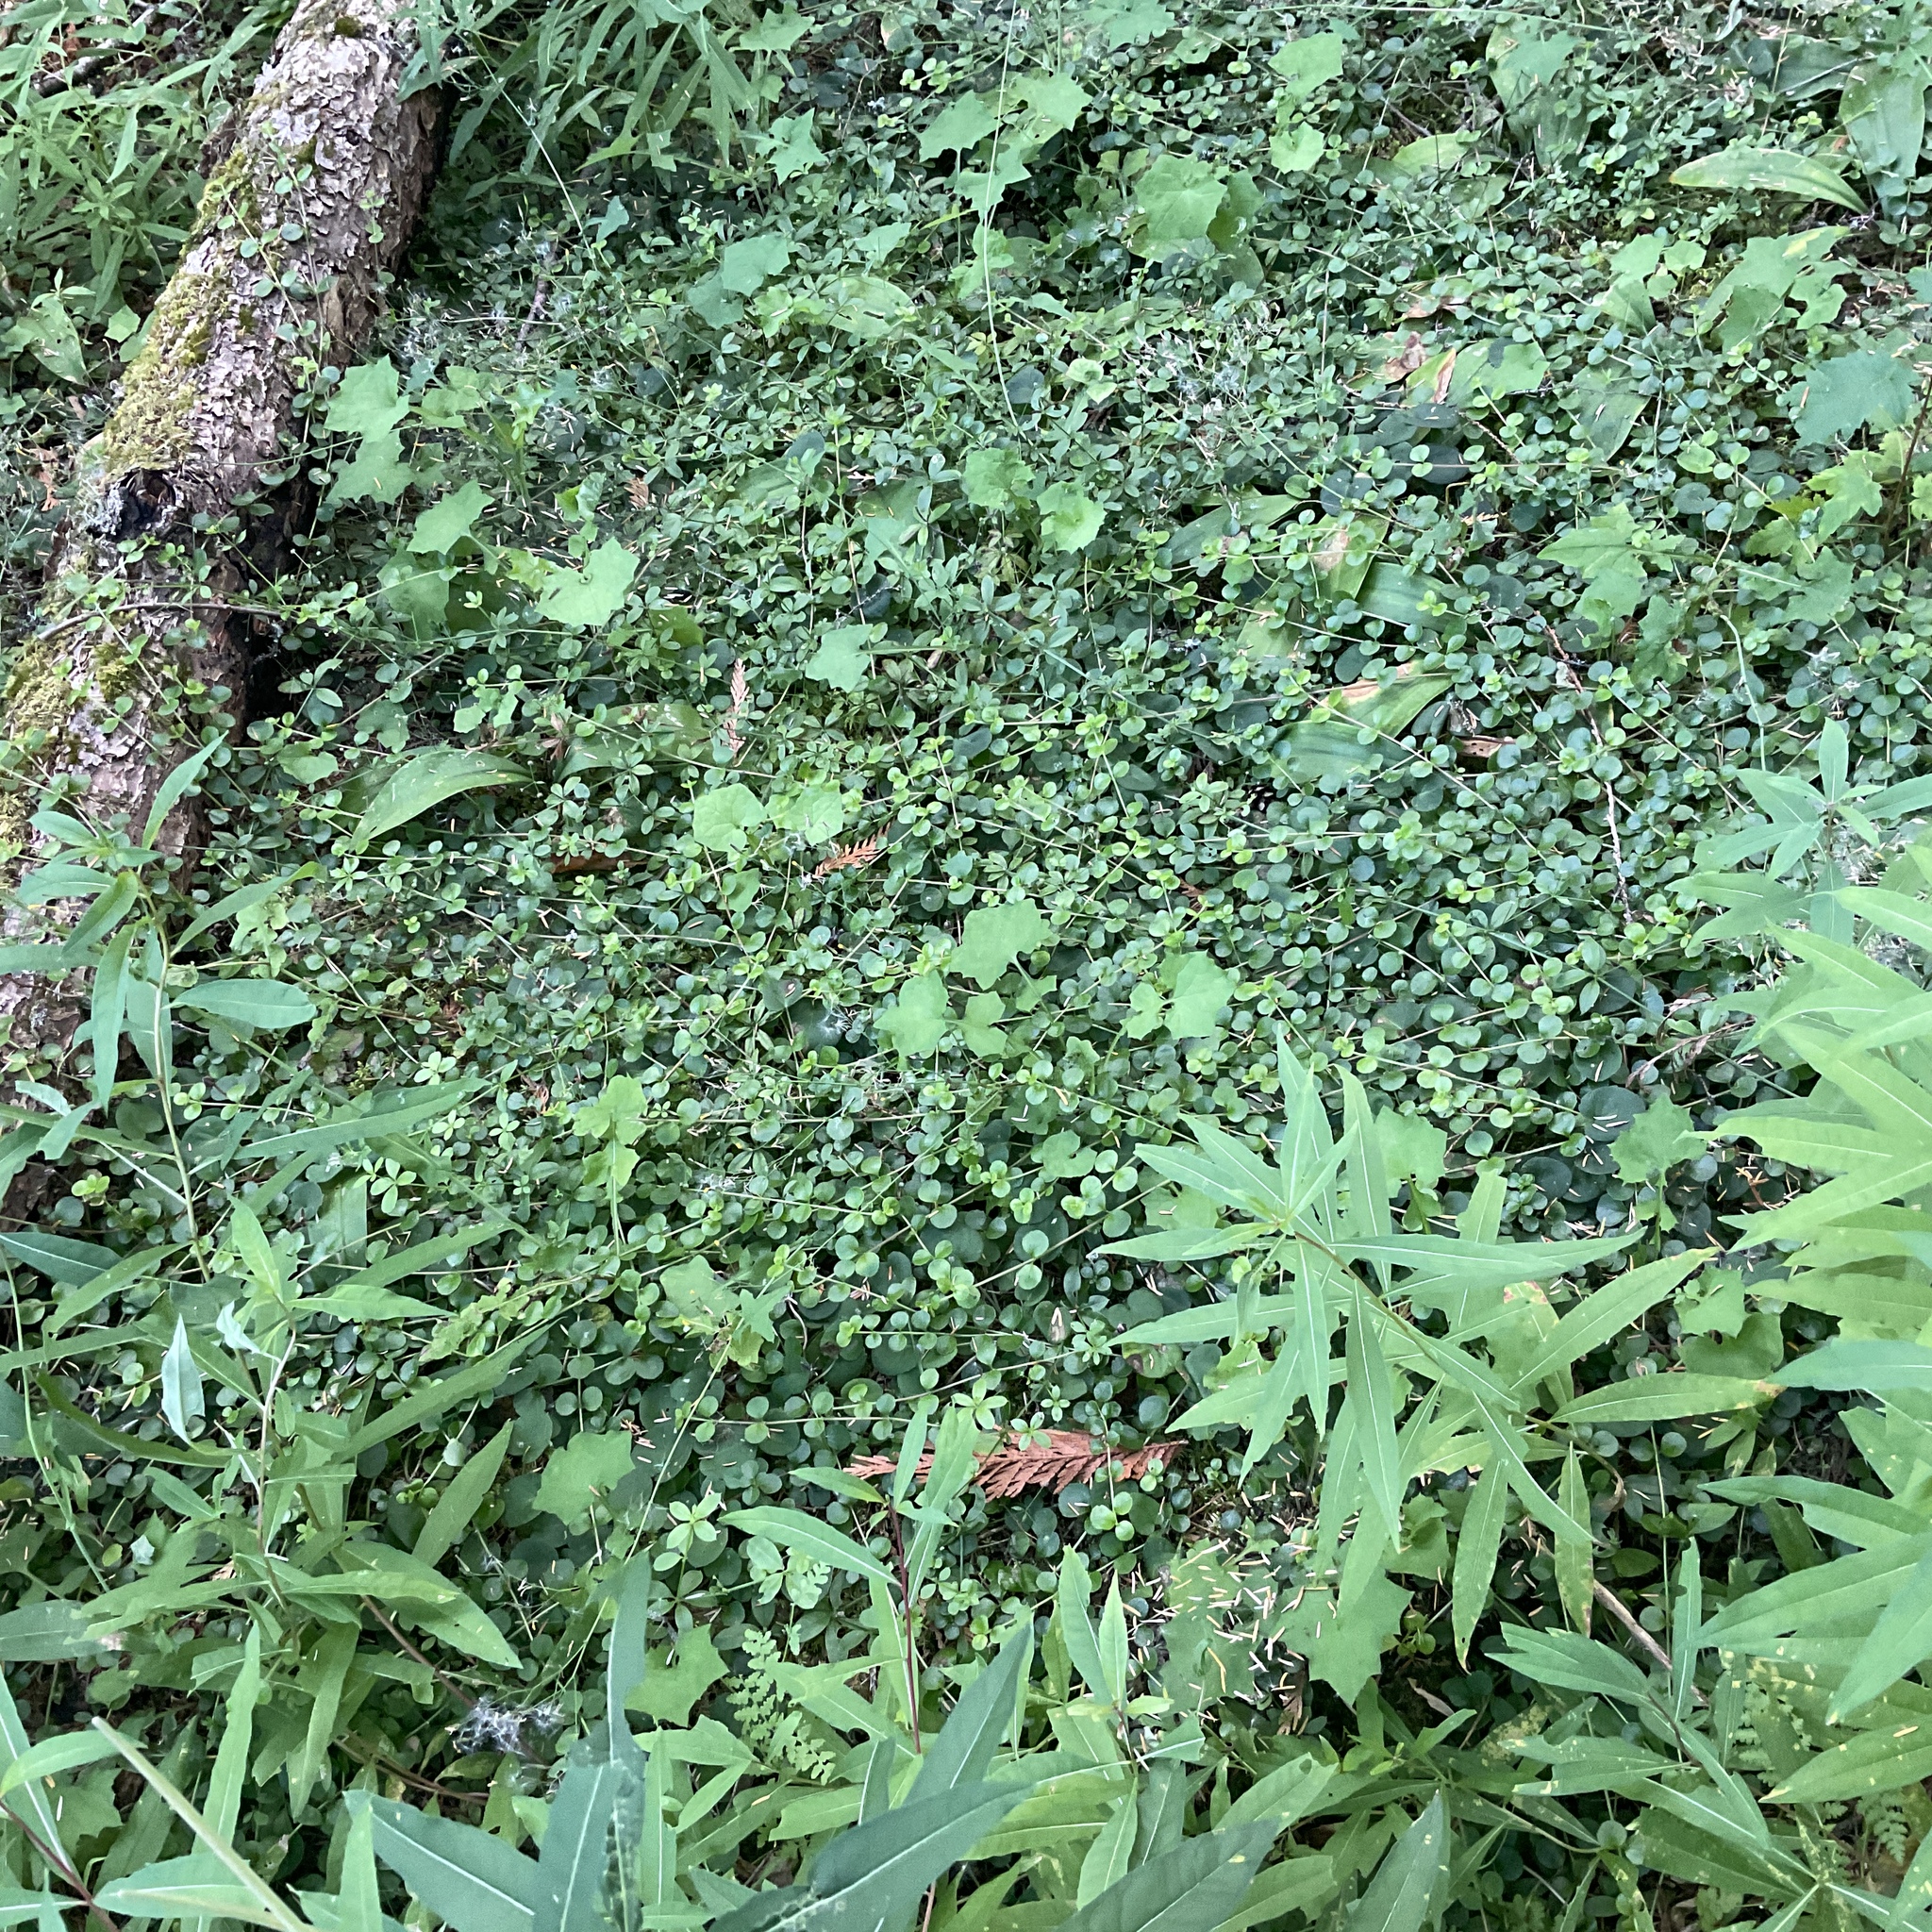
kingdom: Plantae
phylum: Tracheophyta
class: Magnoliopsida
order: Dipsacales
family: Caprifoliaceae
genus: Linnaea
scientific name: Linnaea borealis
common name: Twinflower
